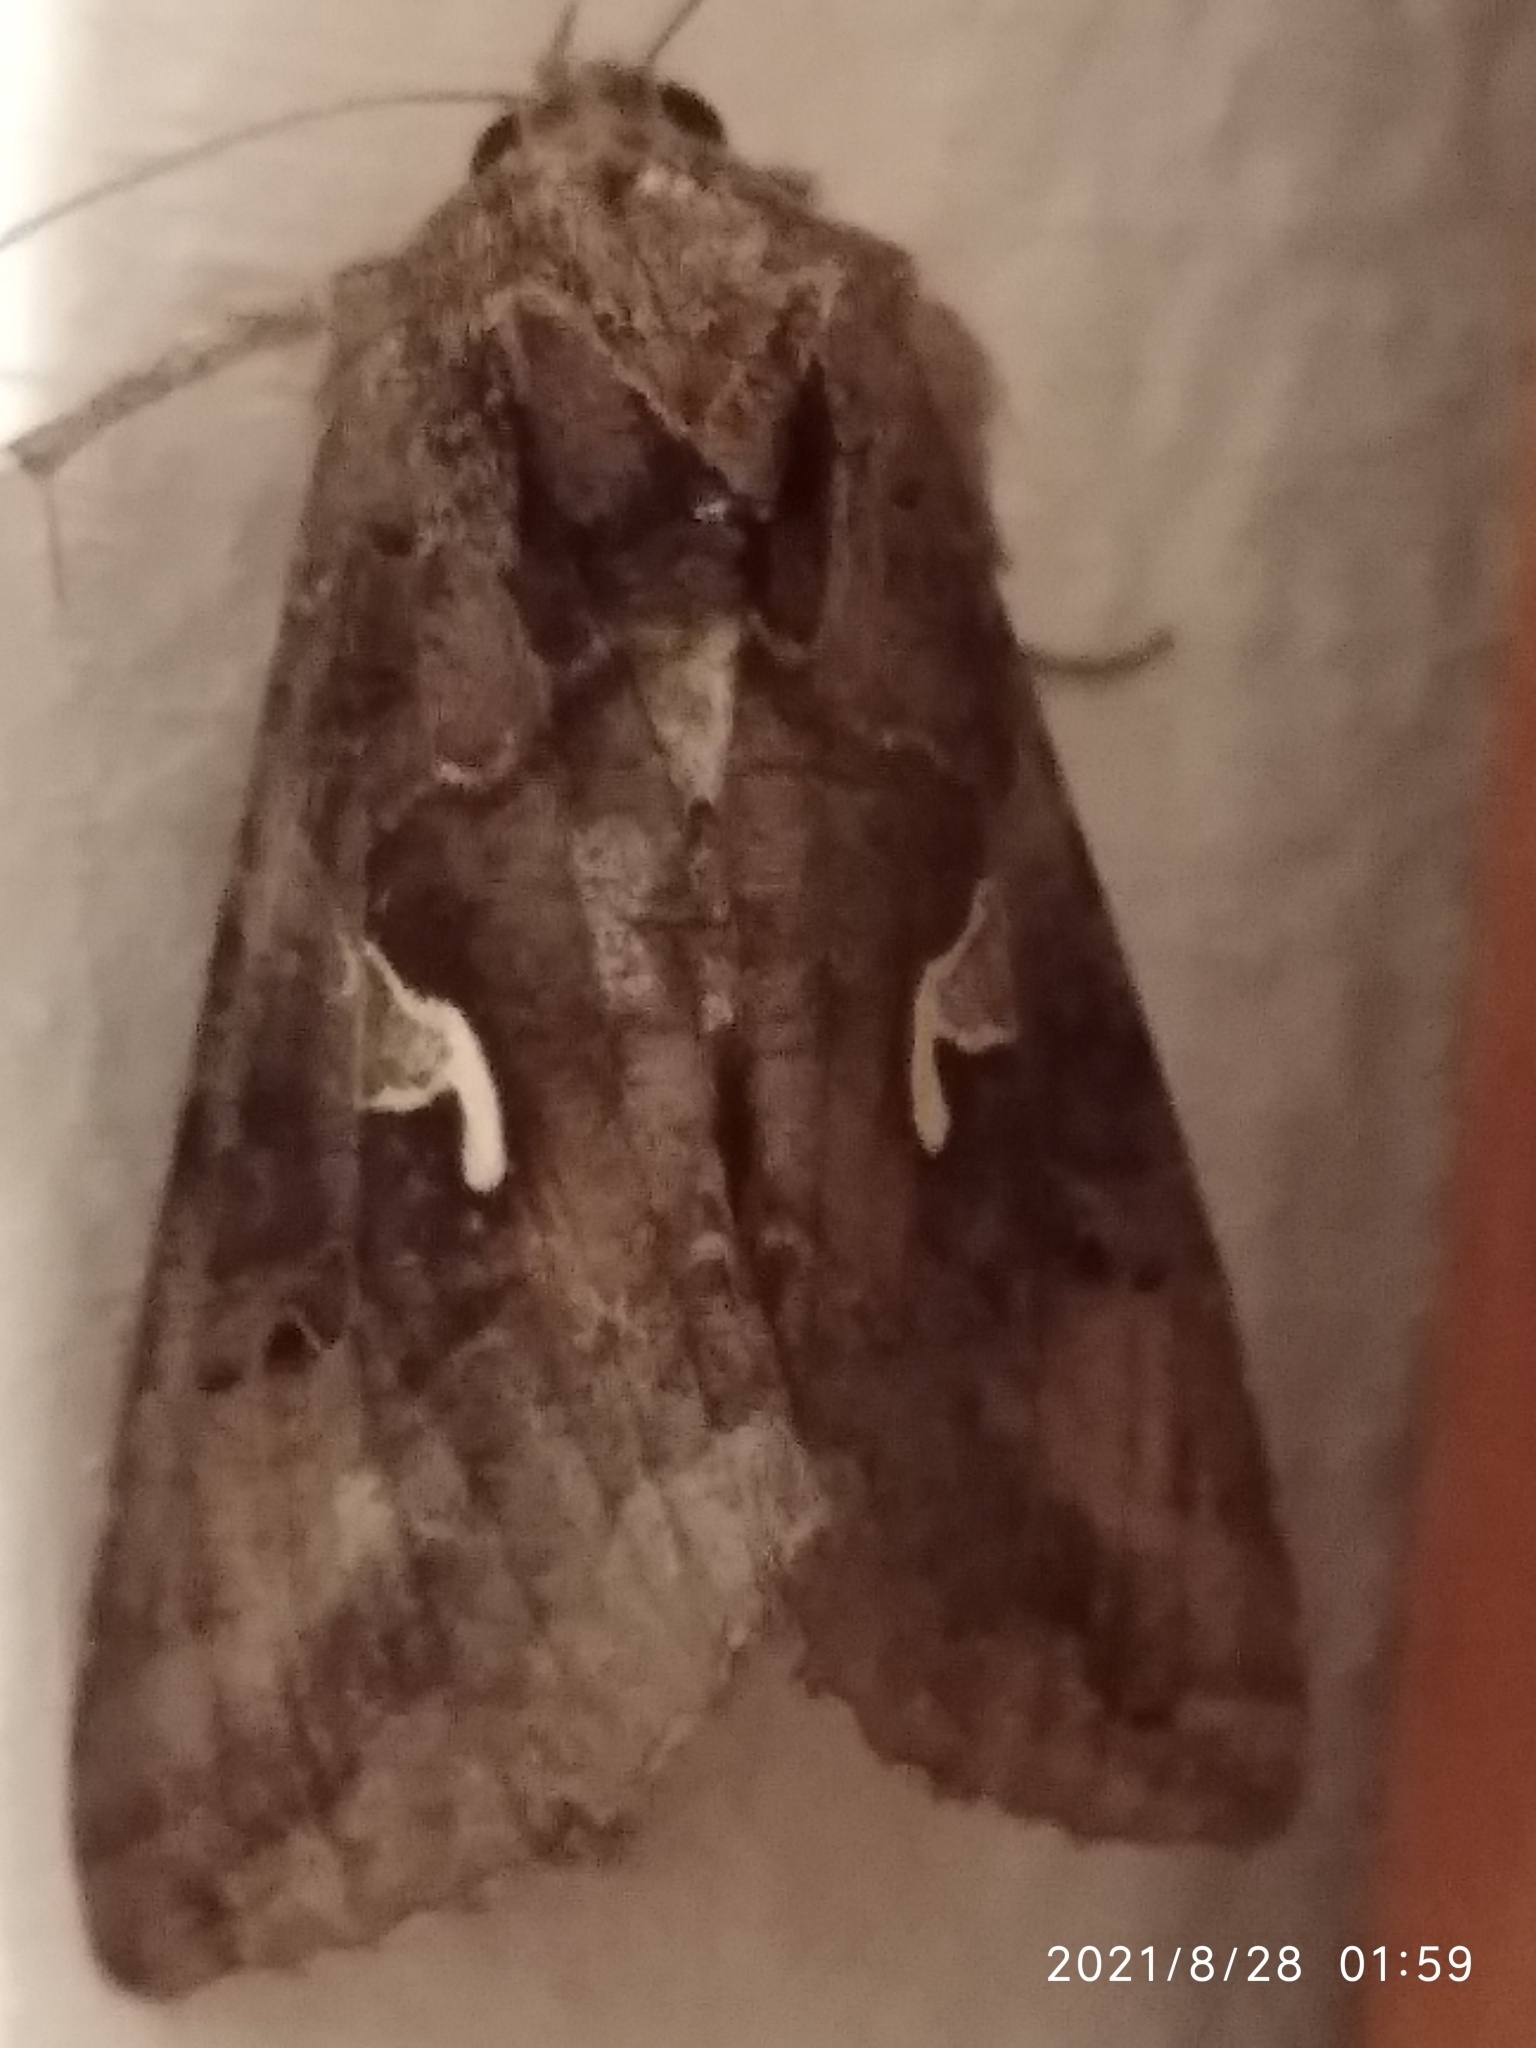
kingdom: Animalia
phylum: Arthropoda
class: Insecta
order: Lepidoptera
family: Noctuidae
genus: Autographa
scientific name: Autographa gamma
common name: Silver y
